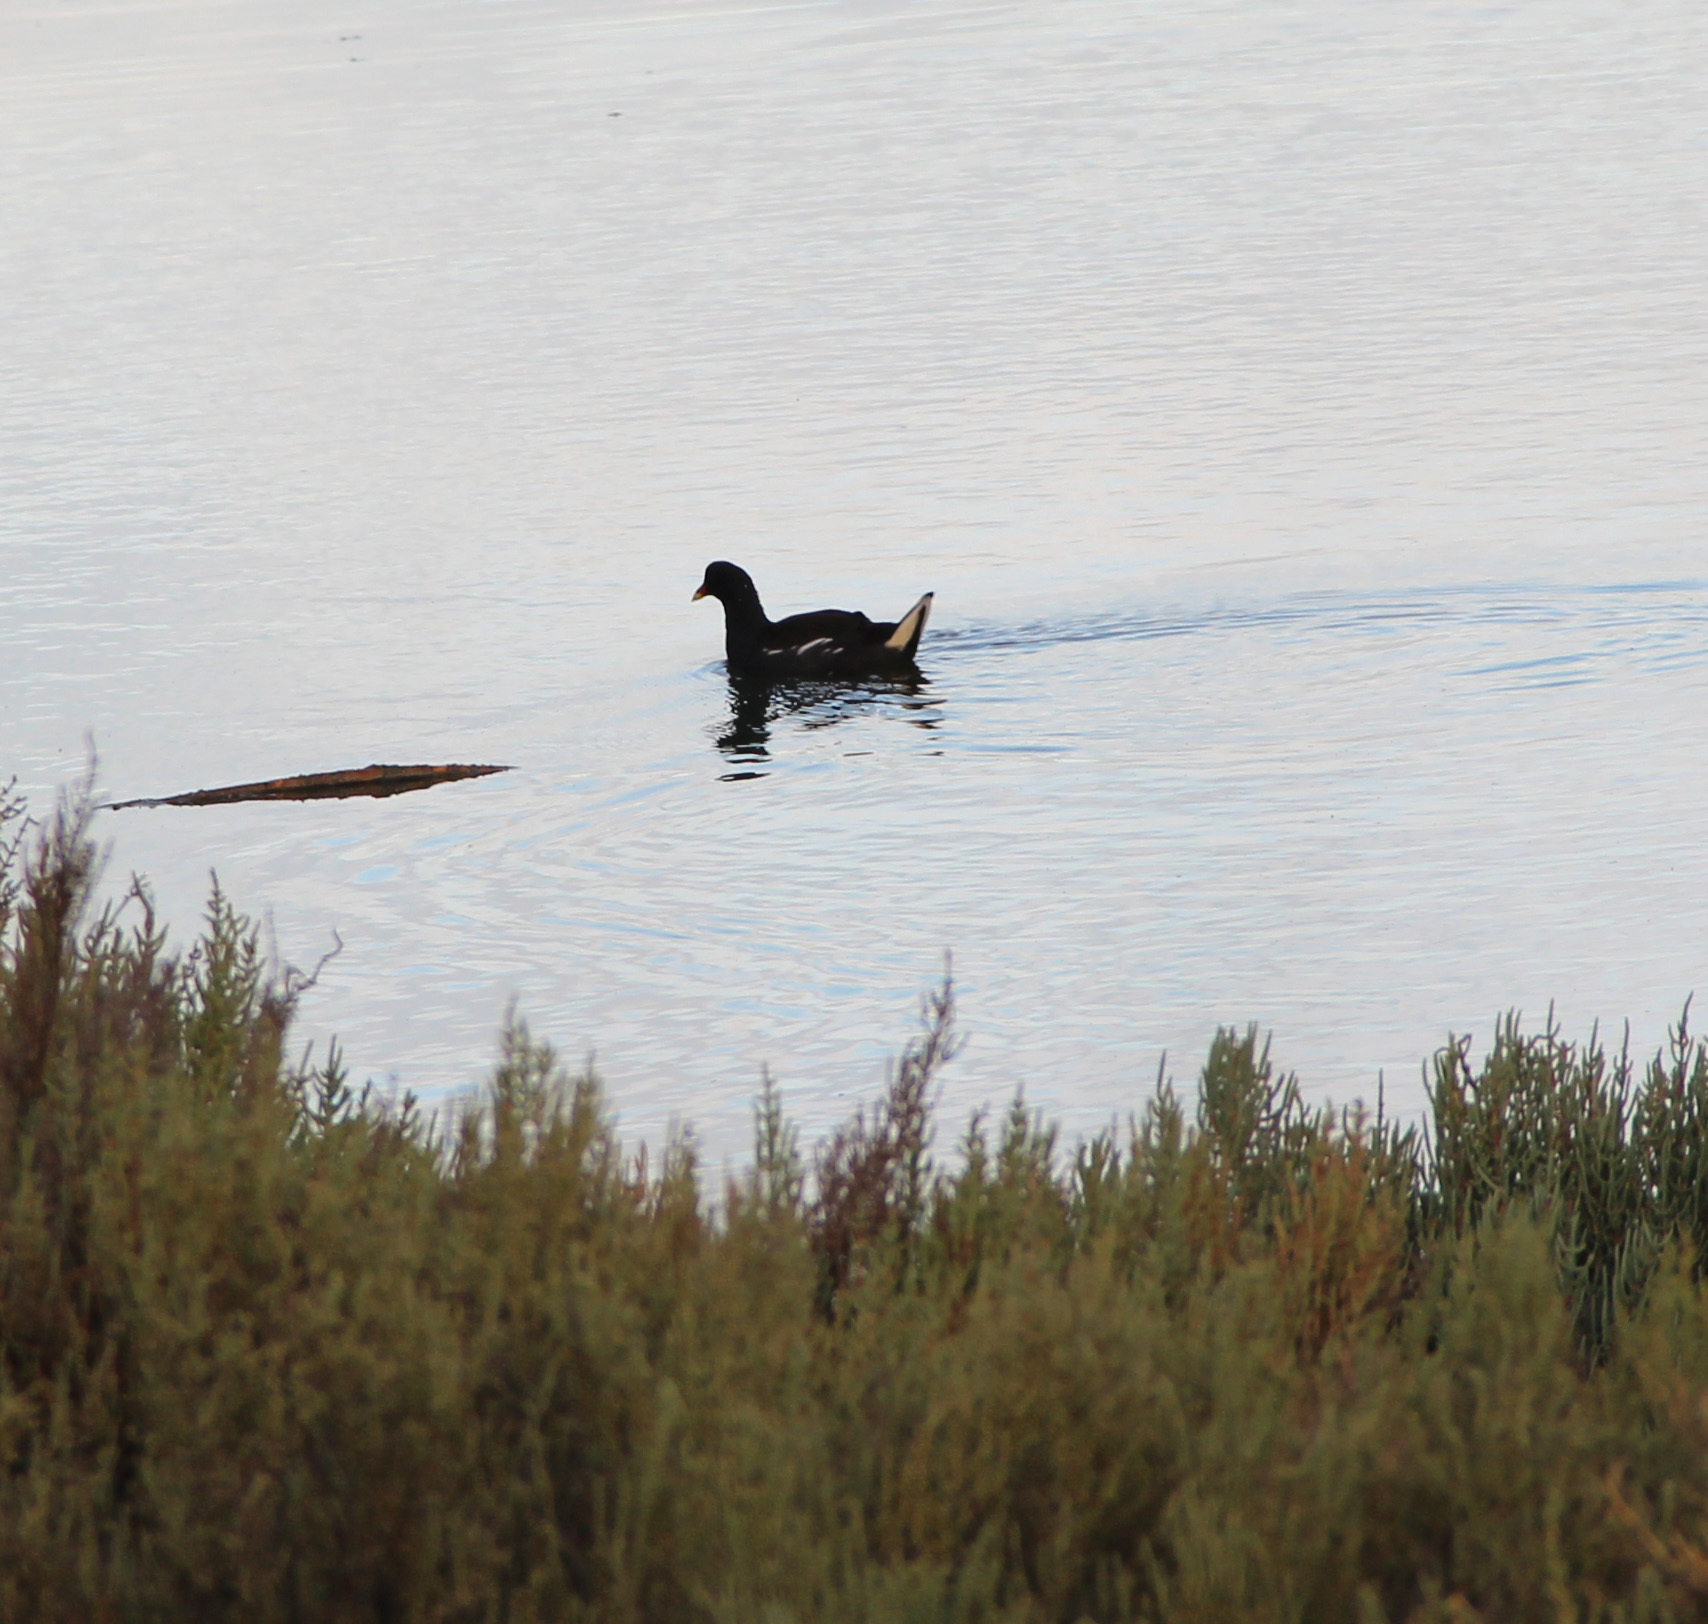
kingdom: Animalia
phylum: Chordata
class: Aves
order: Gruiformes
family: Rallidae
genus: Gallinula
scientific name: Gallinula chloropus
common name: Common moorhen
